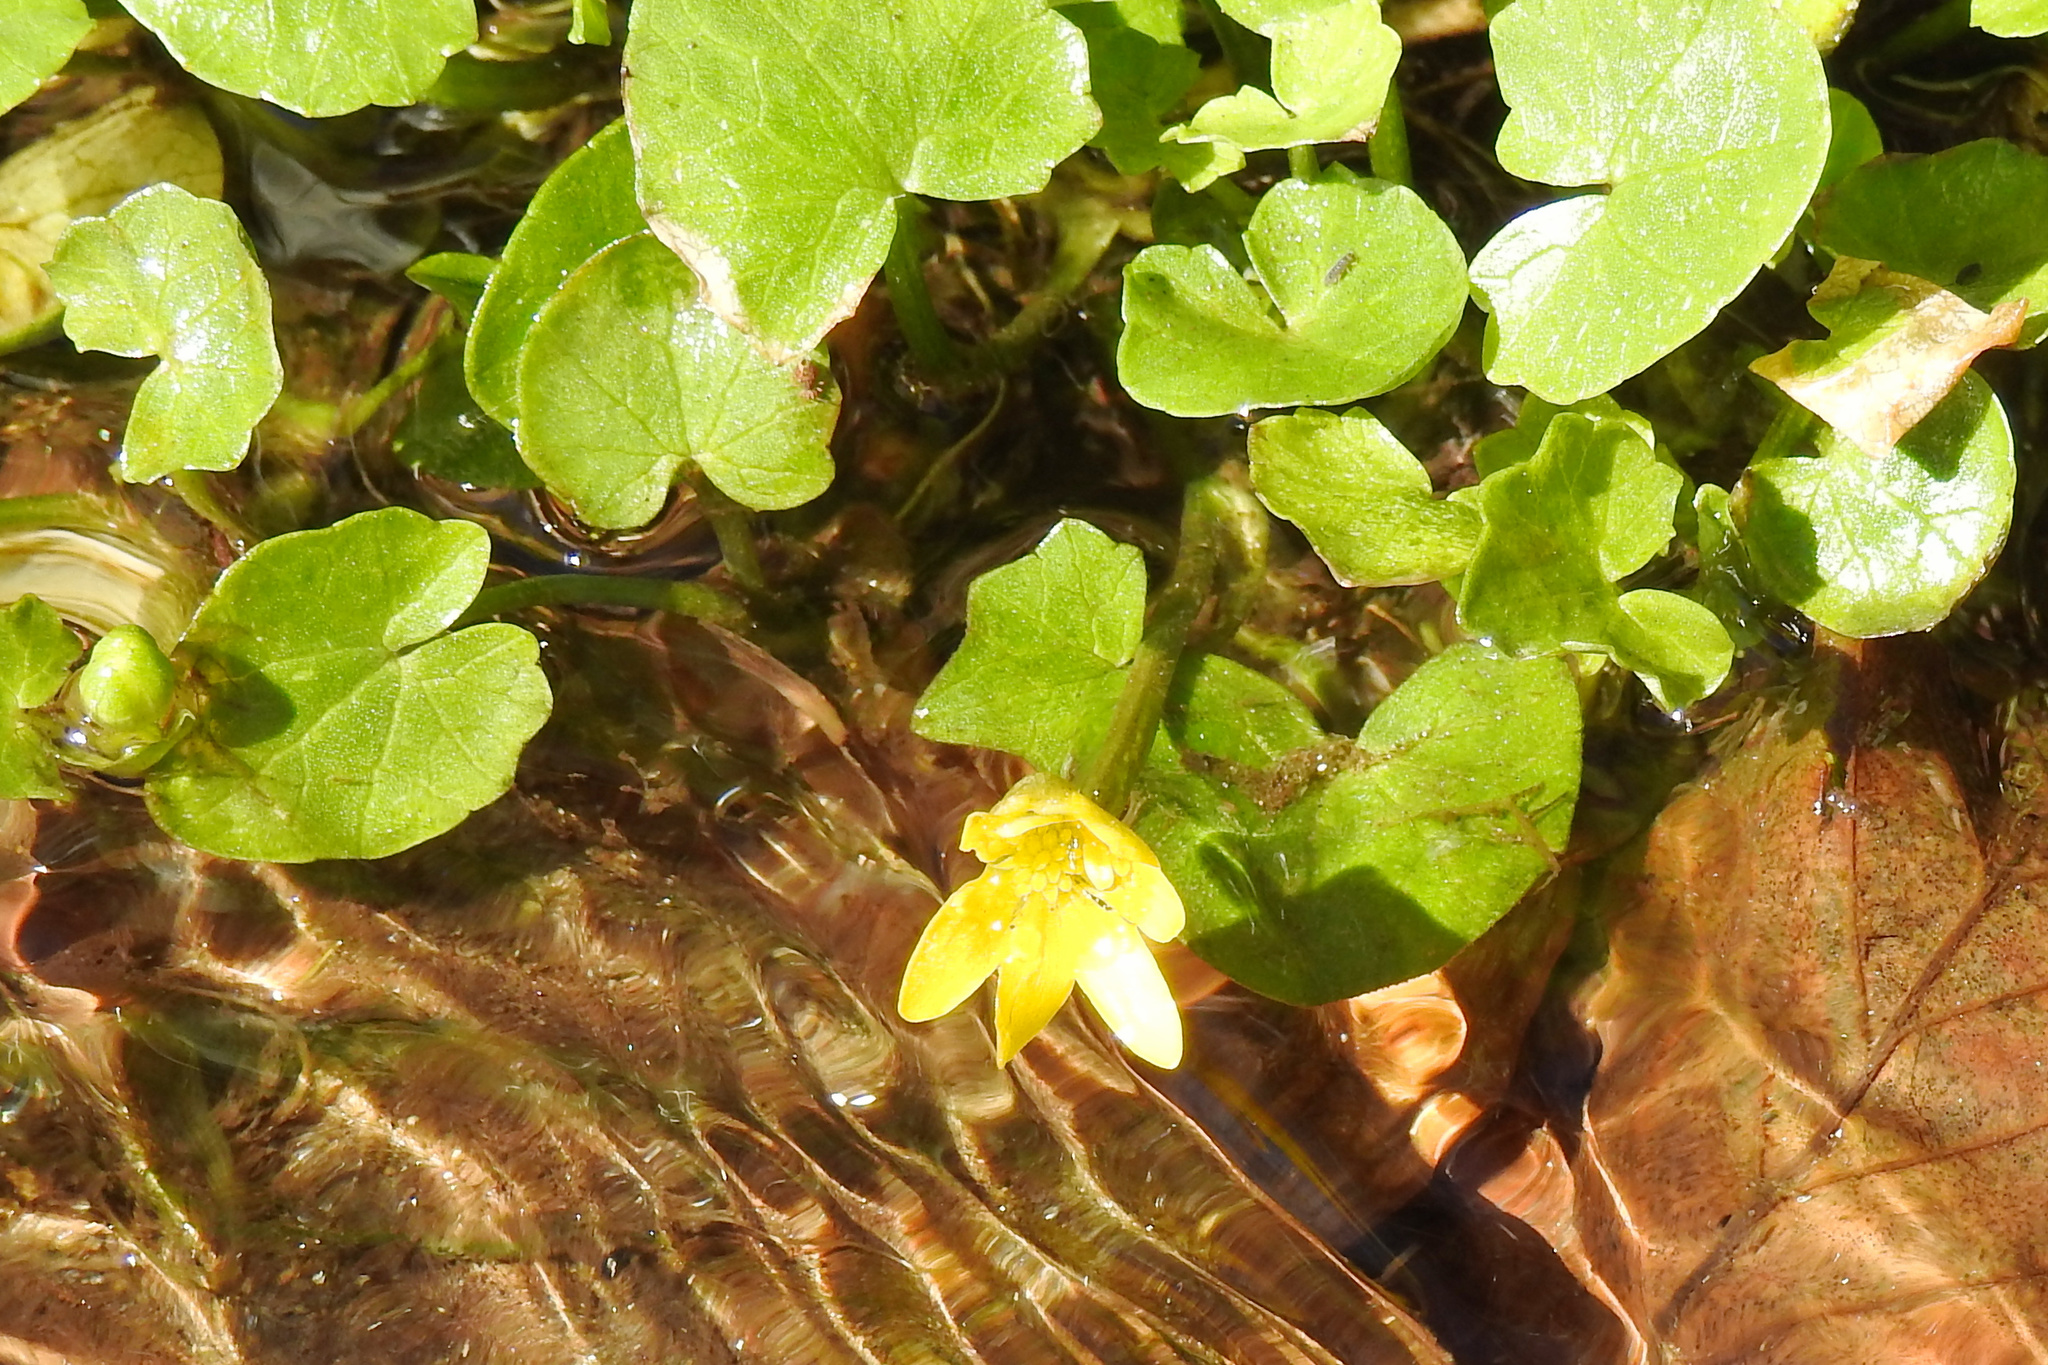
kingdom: Plantae
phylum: Tracheophyta
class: Magnoliopsida
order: Ranunculales
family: Ranunculaceae
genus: Ficaria
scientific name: Ficaria verna
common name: Lesser celandine
